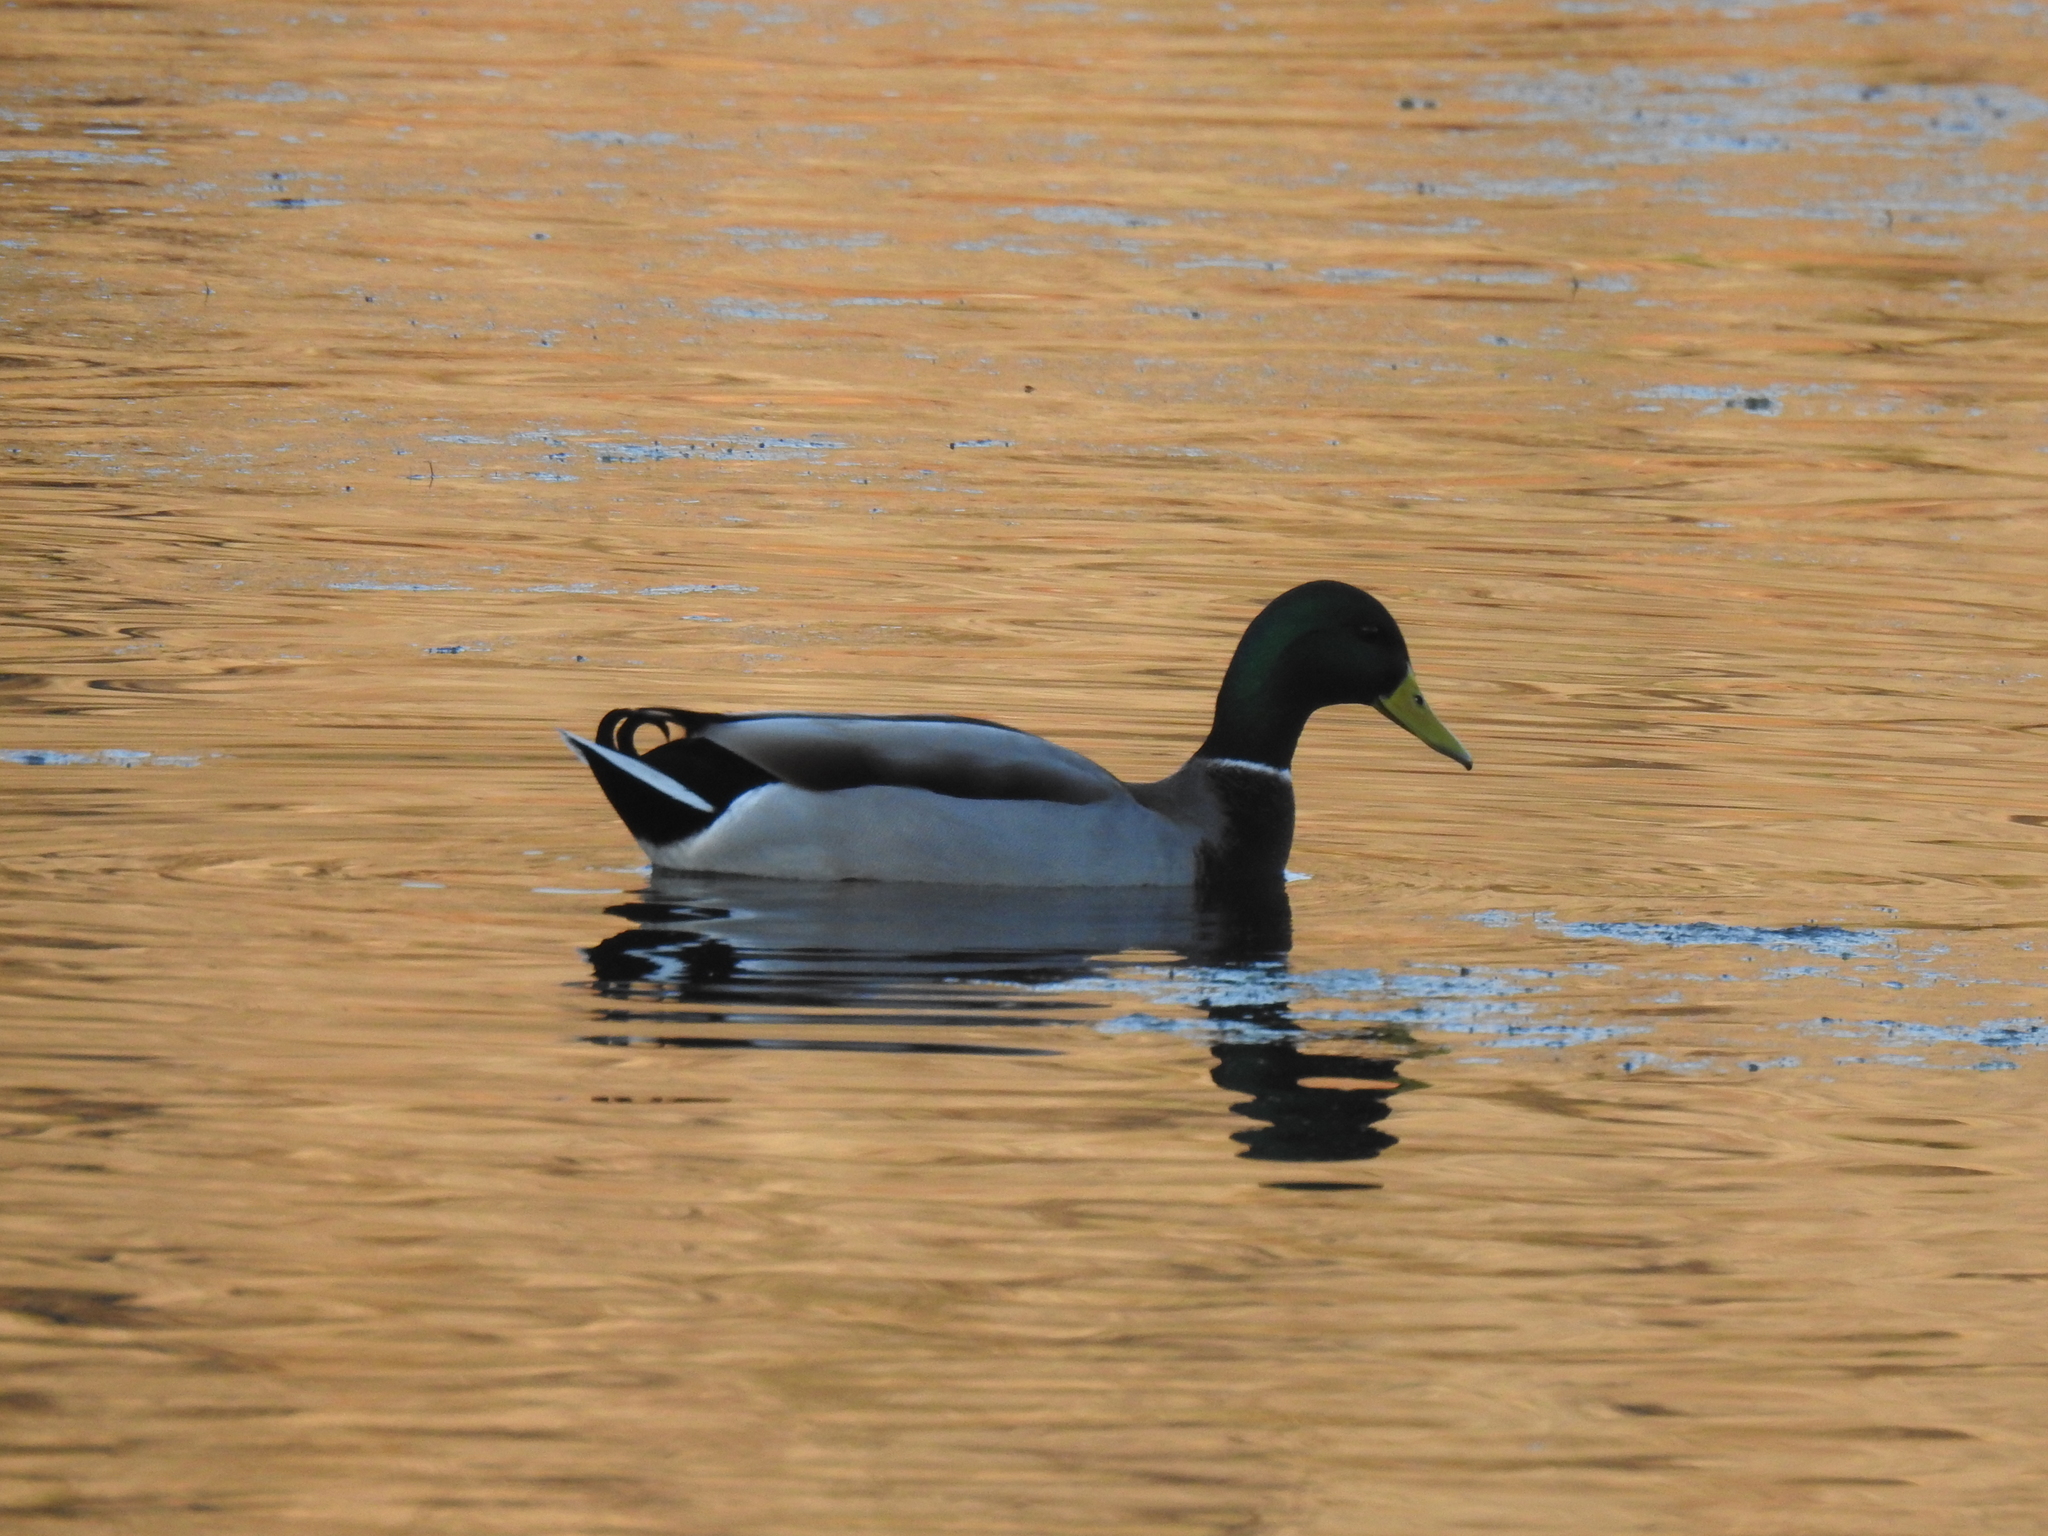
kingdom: Animalia
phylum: Chordata
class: Aves
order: Anseriformes
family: Anatidae
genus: Anas
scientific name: Anas platyrhynchos
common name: Mallard
